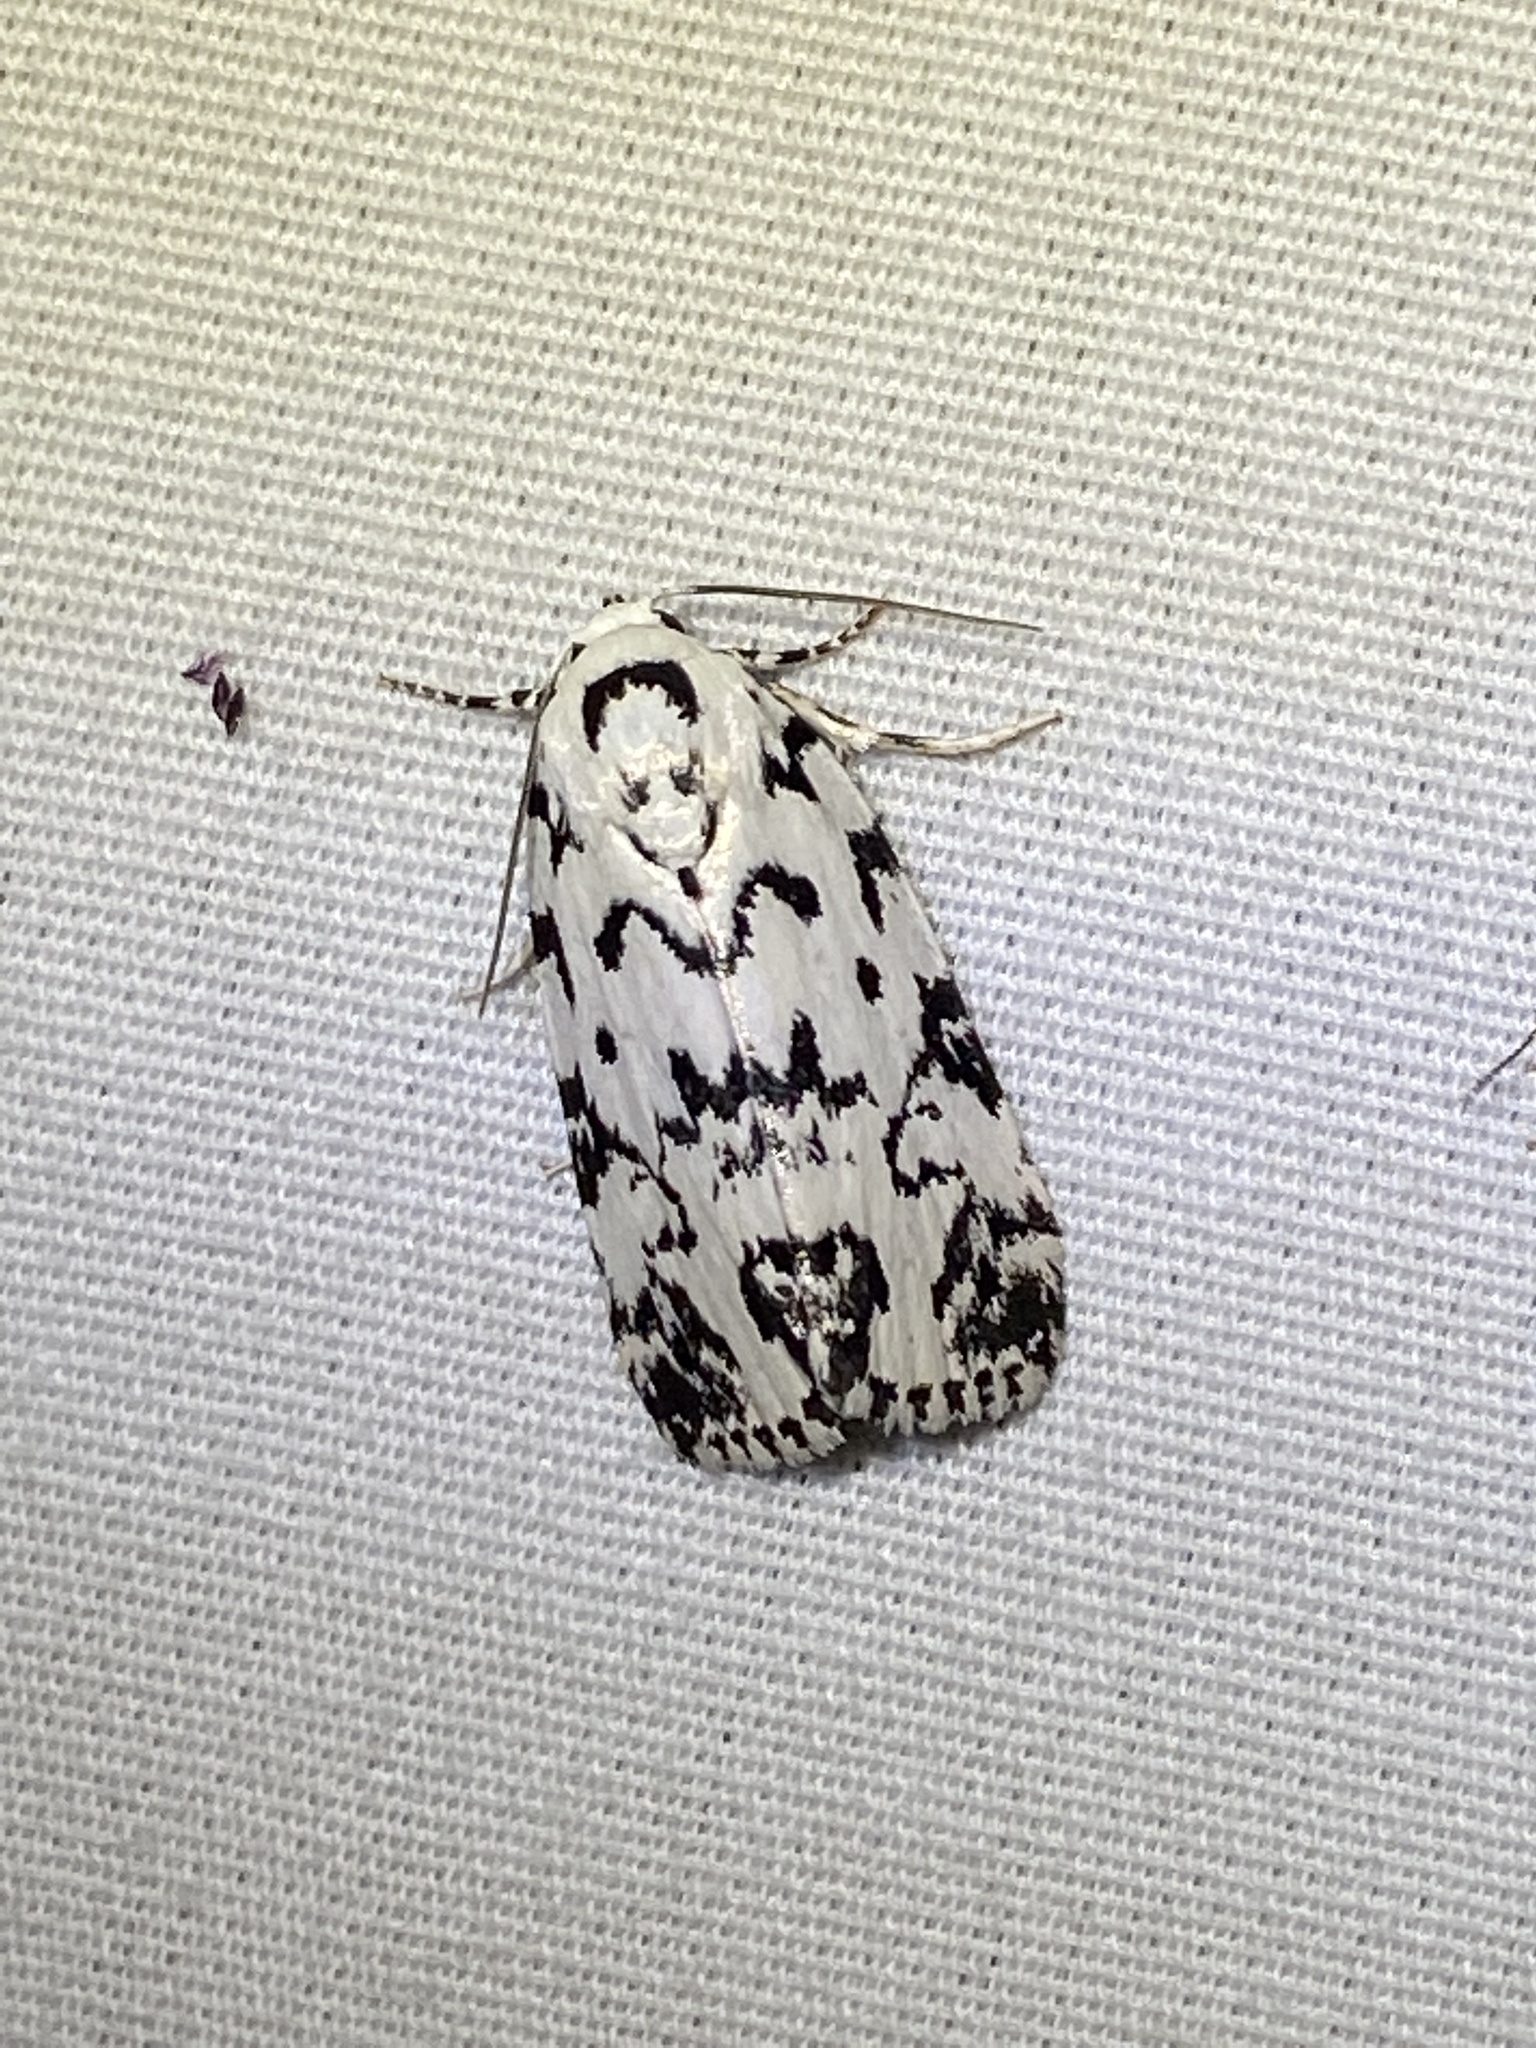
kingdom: Animalia
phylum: Arthropoda
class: Insecta
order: Lepidoptera
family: Noctuidae
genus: Polygrammate
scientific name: Polygrammate hebraeicum
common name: Hebrew moth
